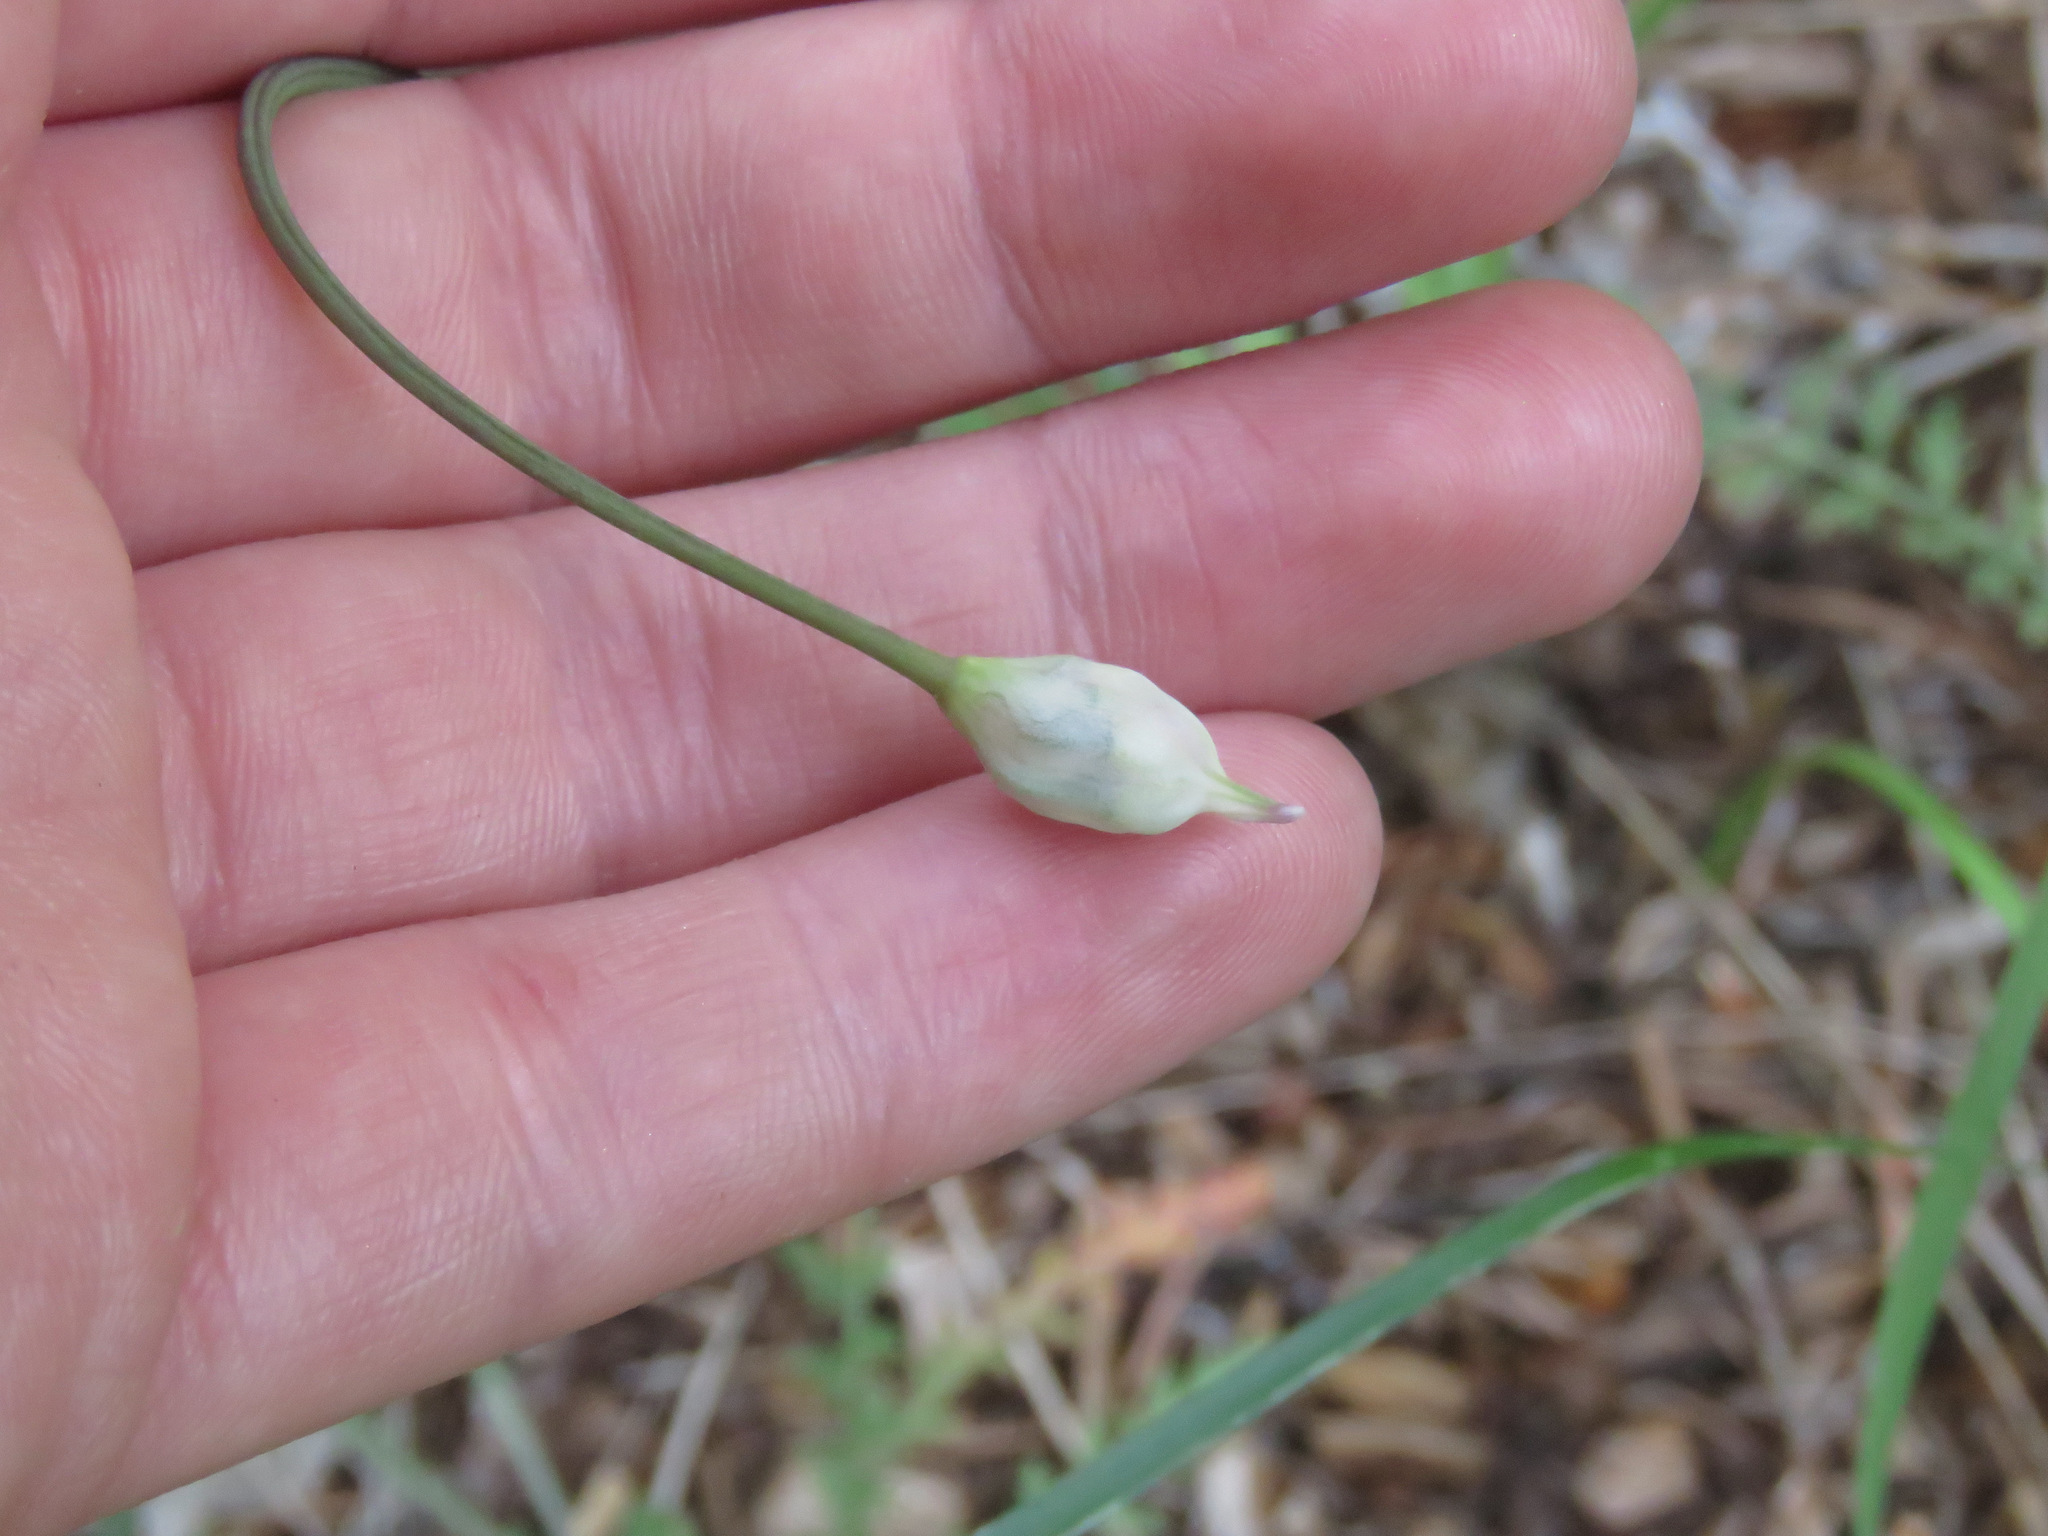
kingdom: Plantae
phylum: Tracheophyta
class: Liliopsida
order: Asparagales
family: Amaryllidaceae
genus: Allium
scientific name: Allium cernuum
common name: Nodding onion
